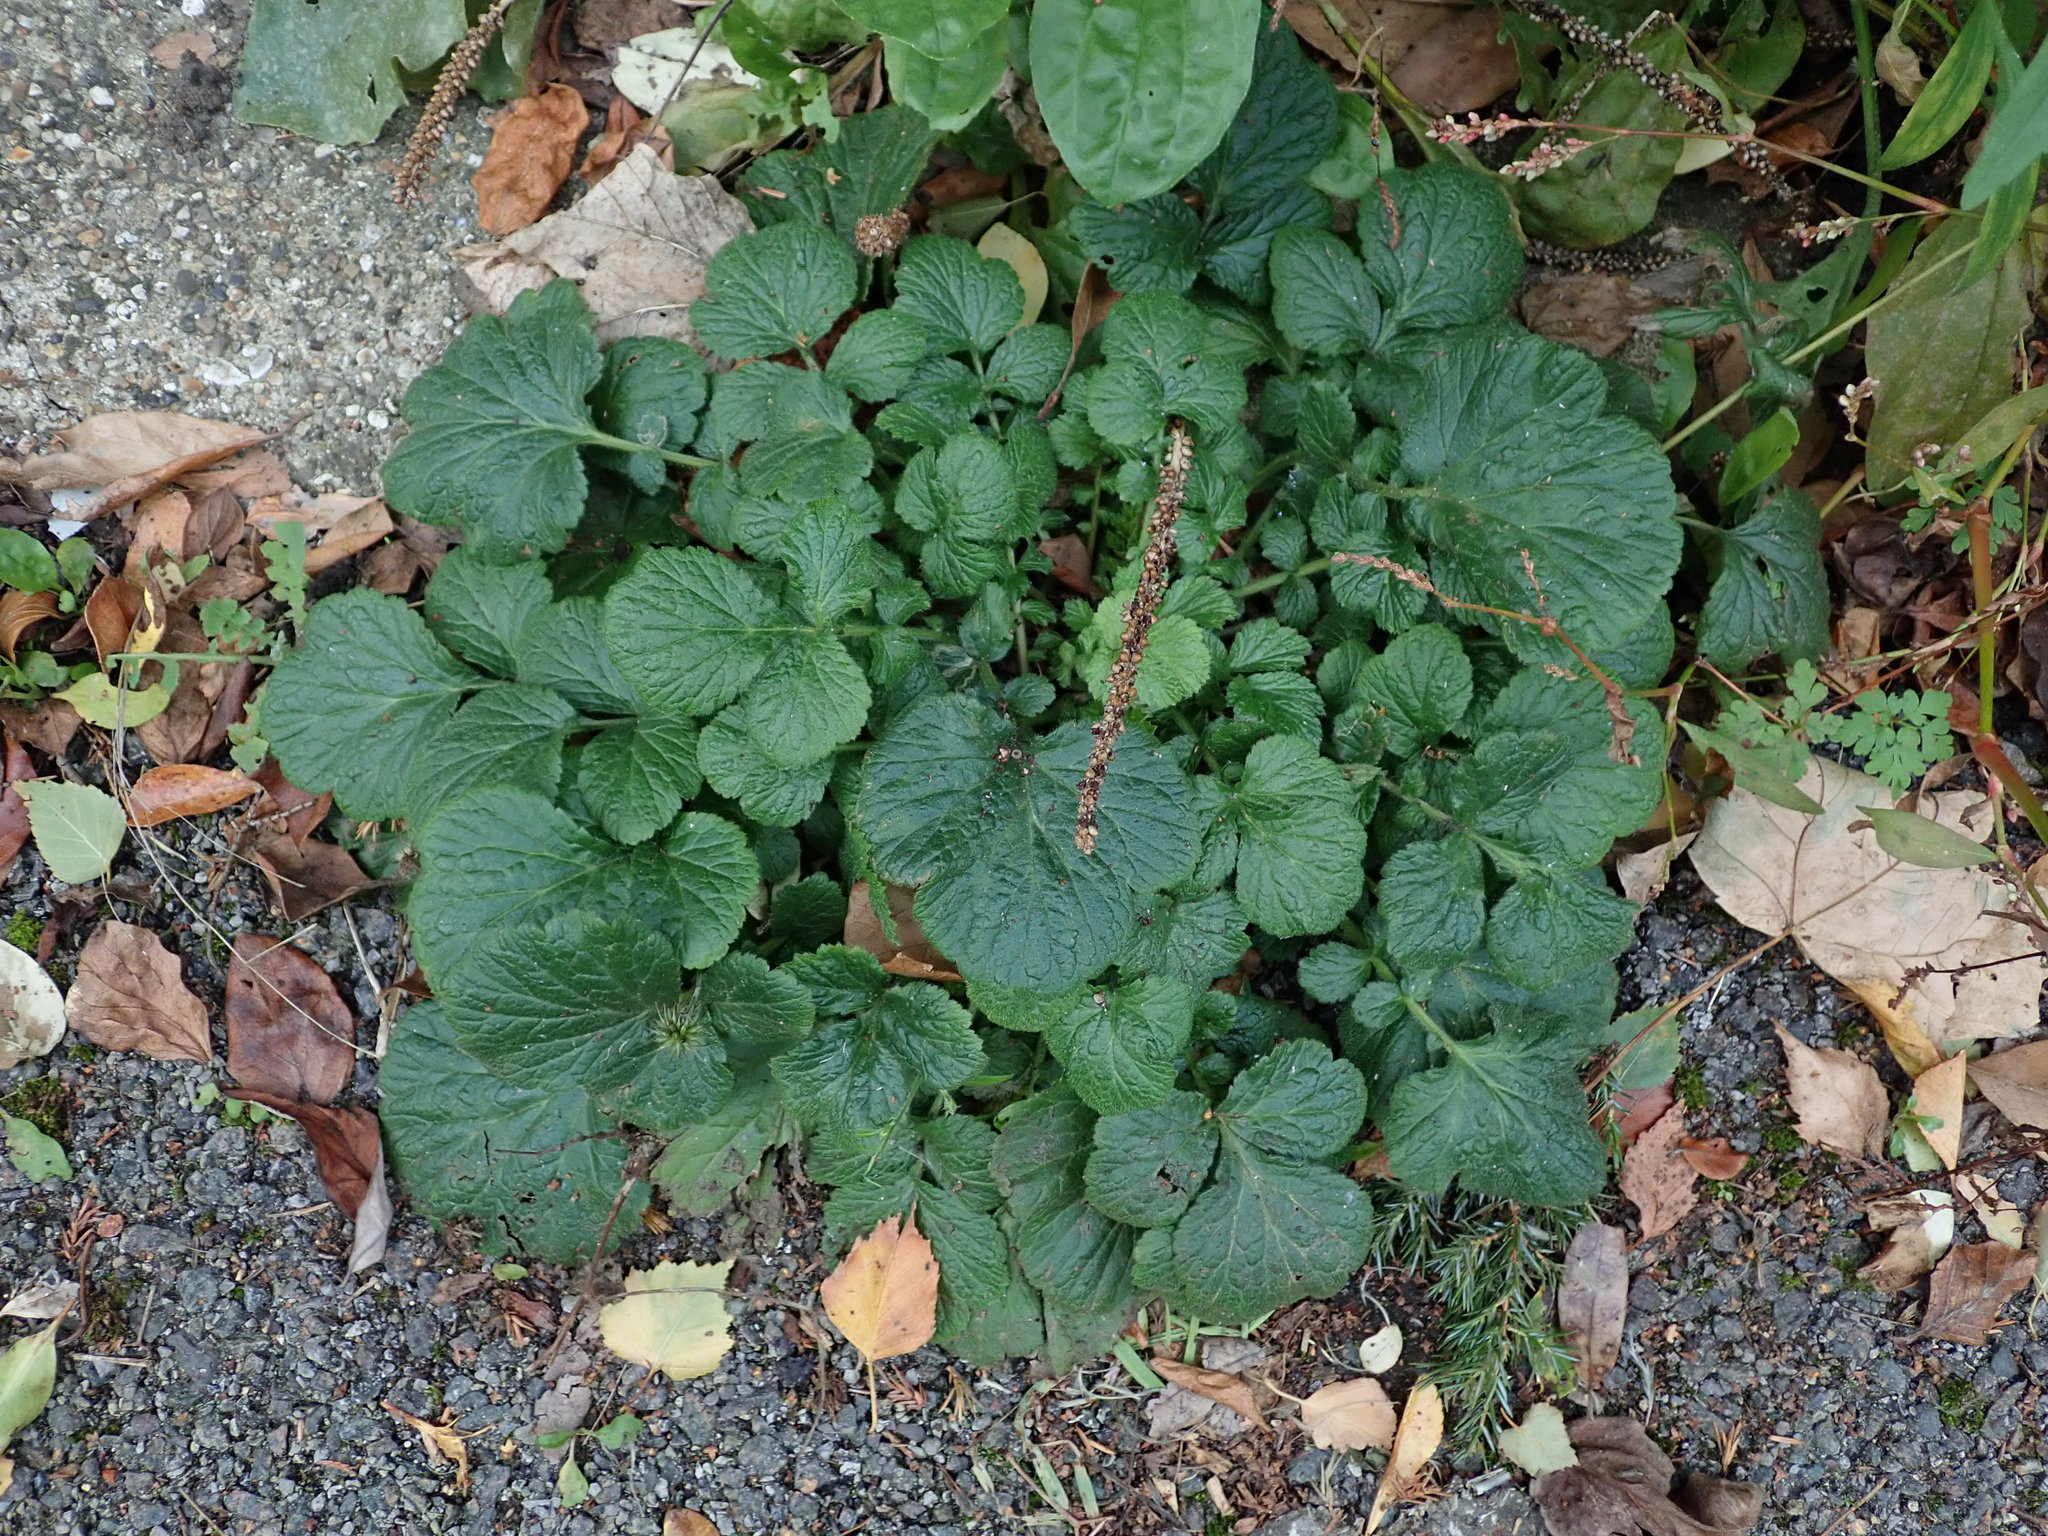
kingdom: Plantae
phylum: Tracheophyta
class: Magnoliopsida
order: Rosales
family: Rosaceae
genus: Geum
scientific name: Geum urbanum
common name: Wood avens
